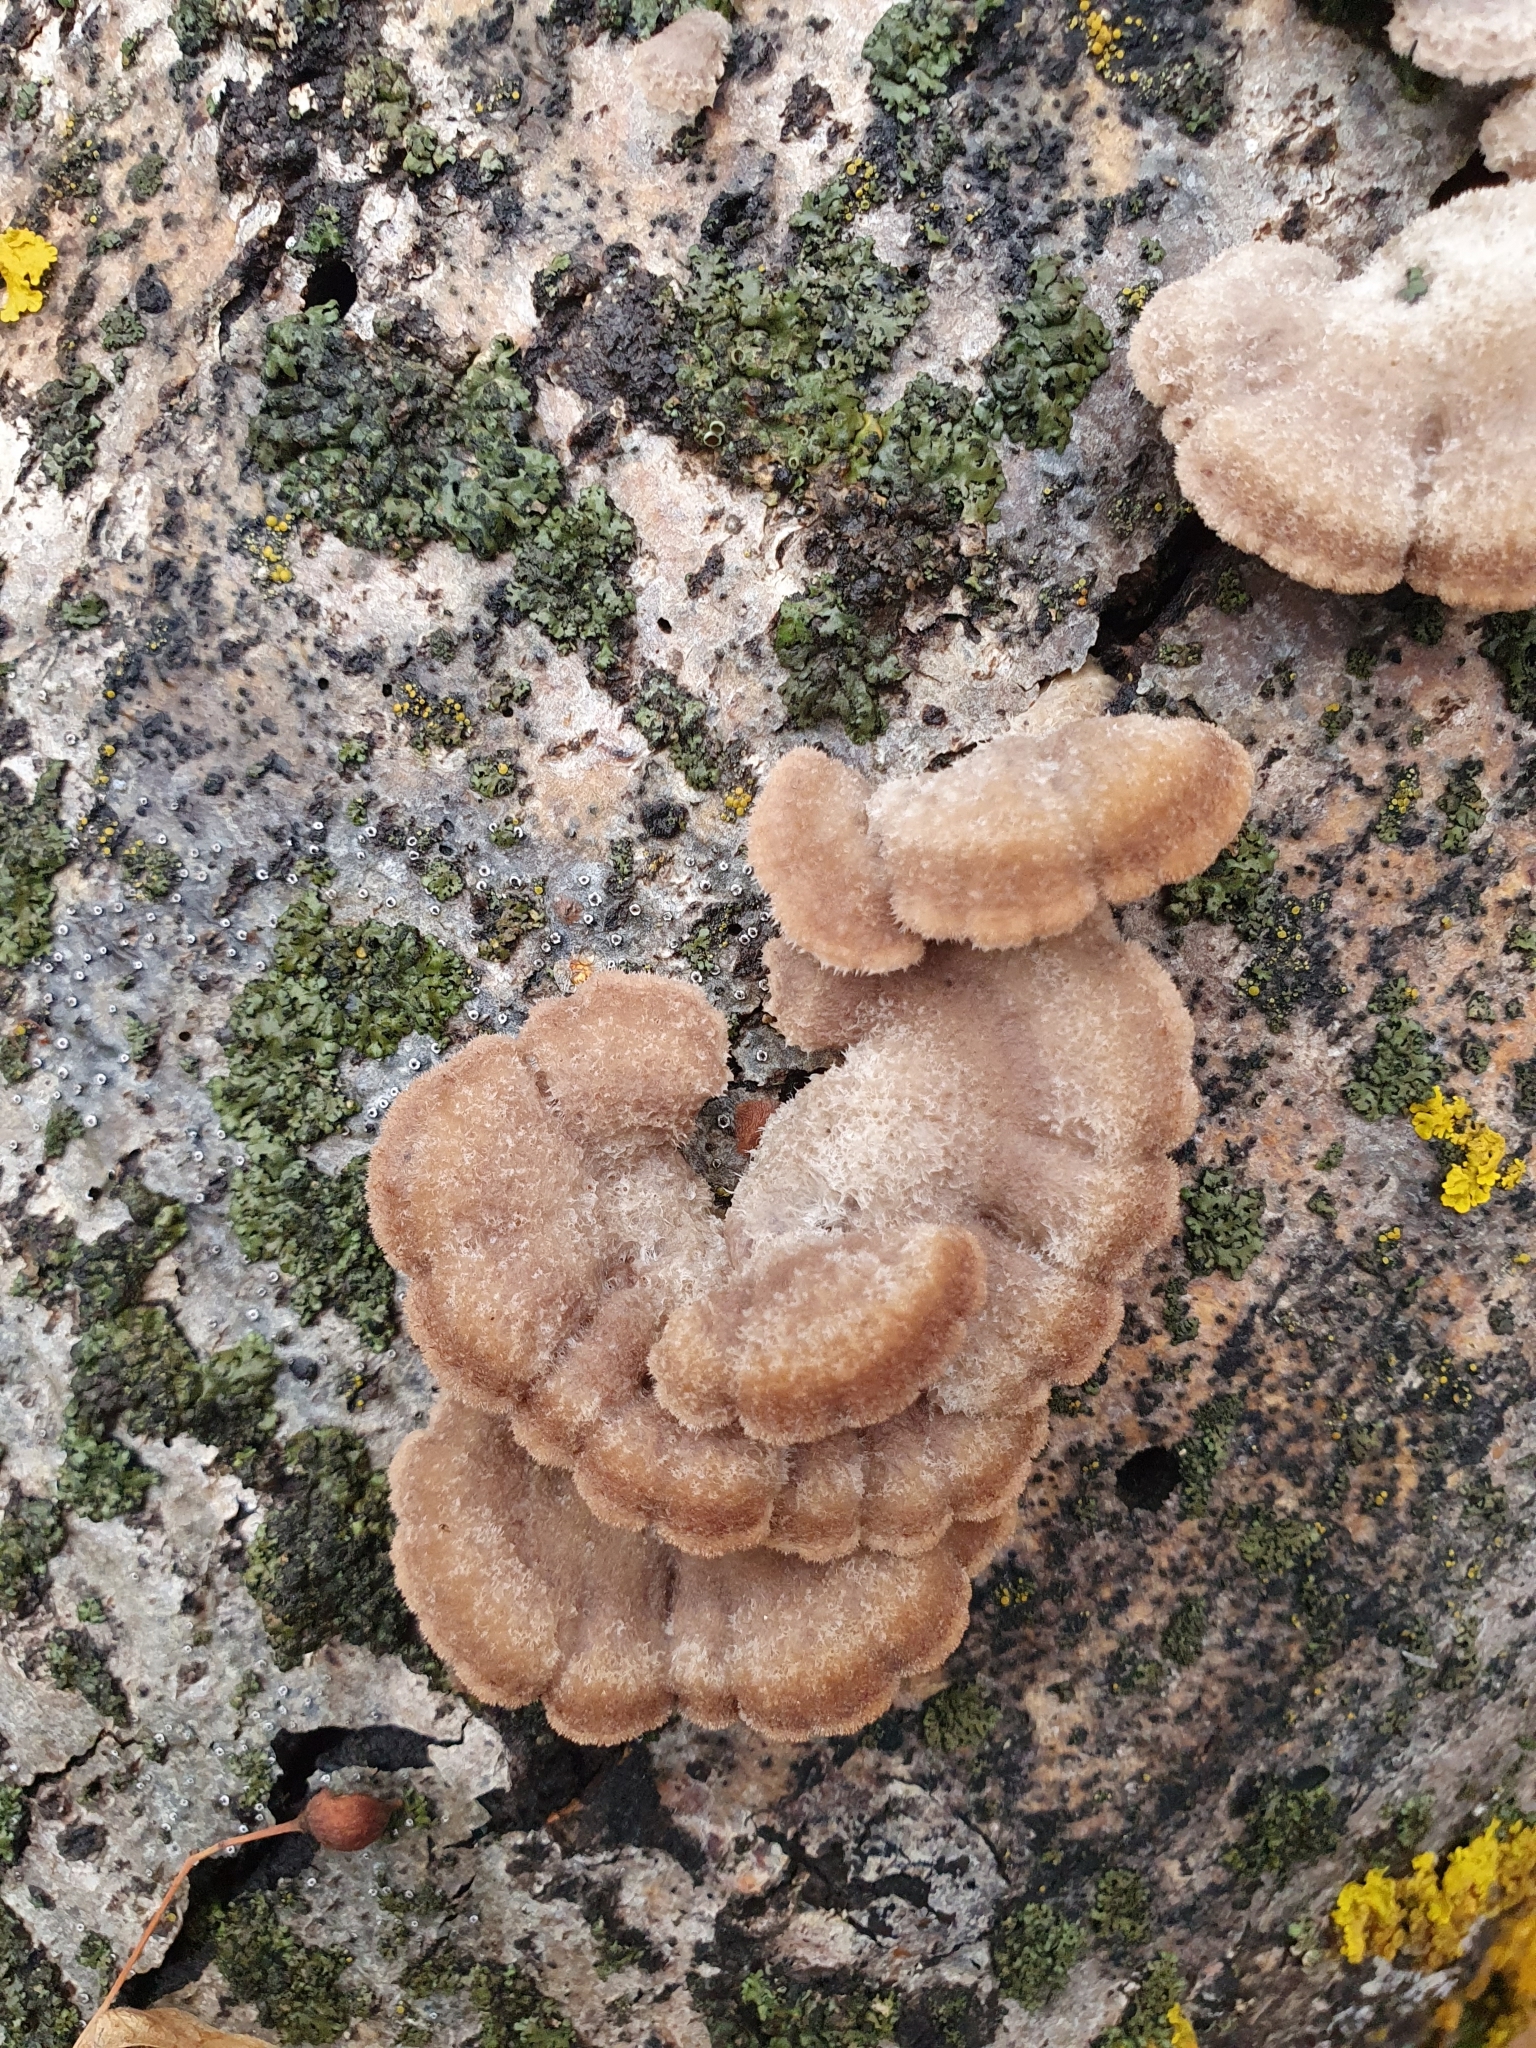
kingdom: Fungi
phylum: Basidiomycota
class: Agaricomycetes
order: Agaricales
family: Schizophyllaceae
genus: Schizophyllum
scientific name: Schizophyllum commune
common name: Common porecrust
